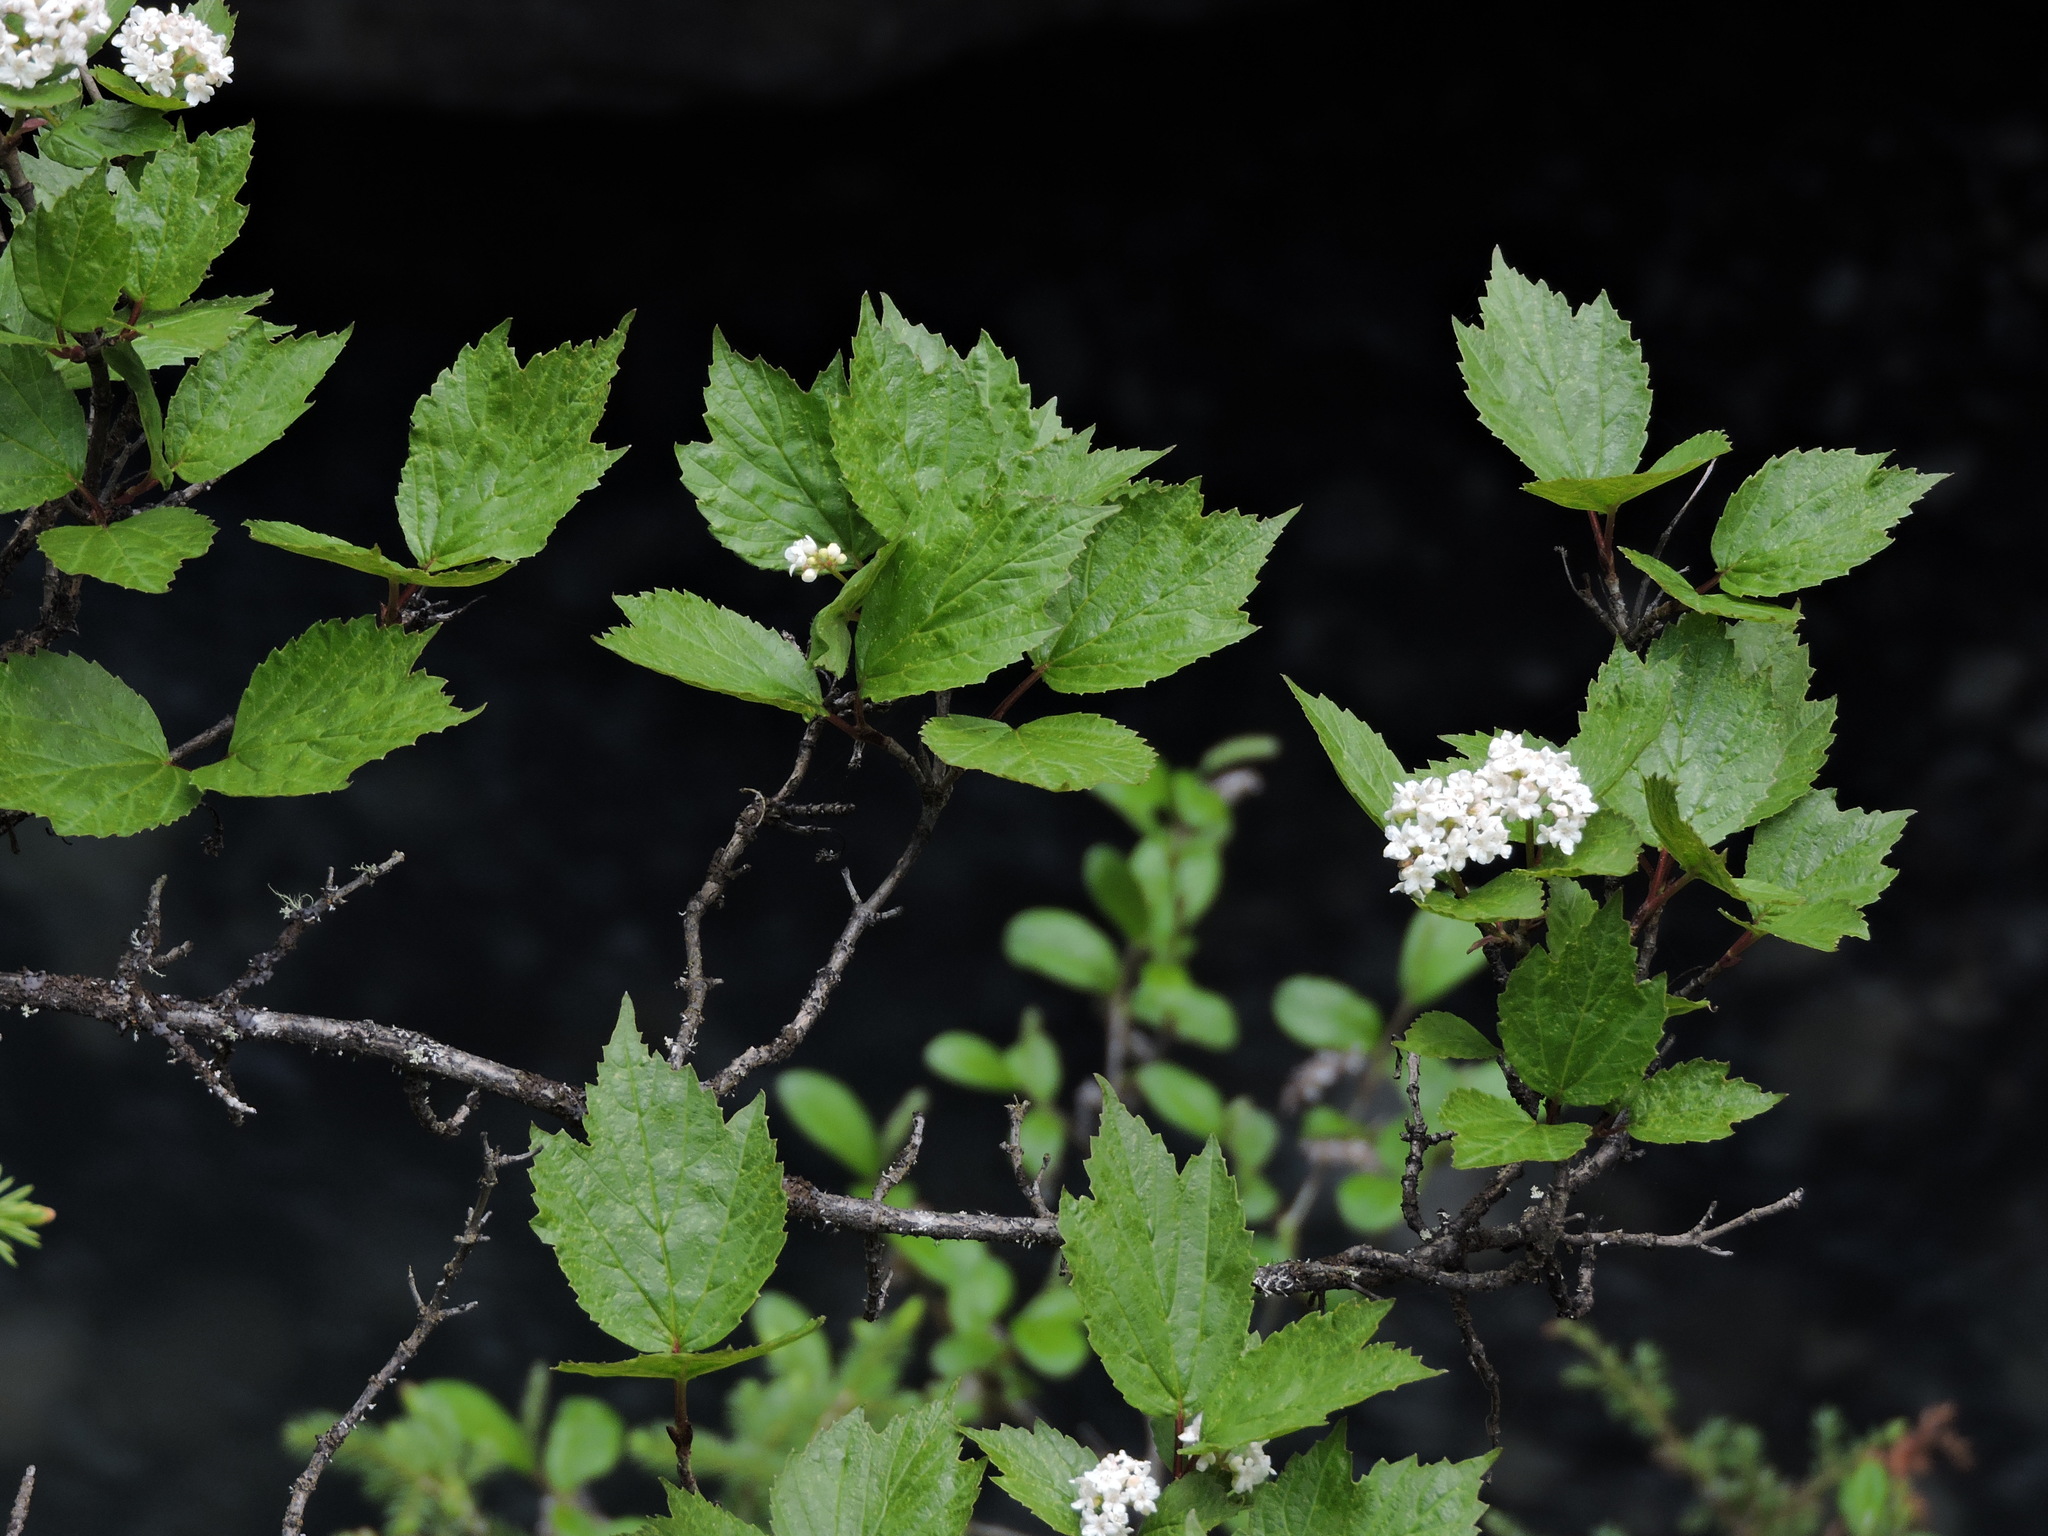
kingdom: Plantae
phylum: Tracheophyta
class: Magnoliopsida
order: Dipsacales
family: Viburnaceae
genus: Viburnum
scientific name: Viburnum edule
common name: Mooseberry
